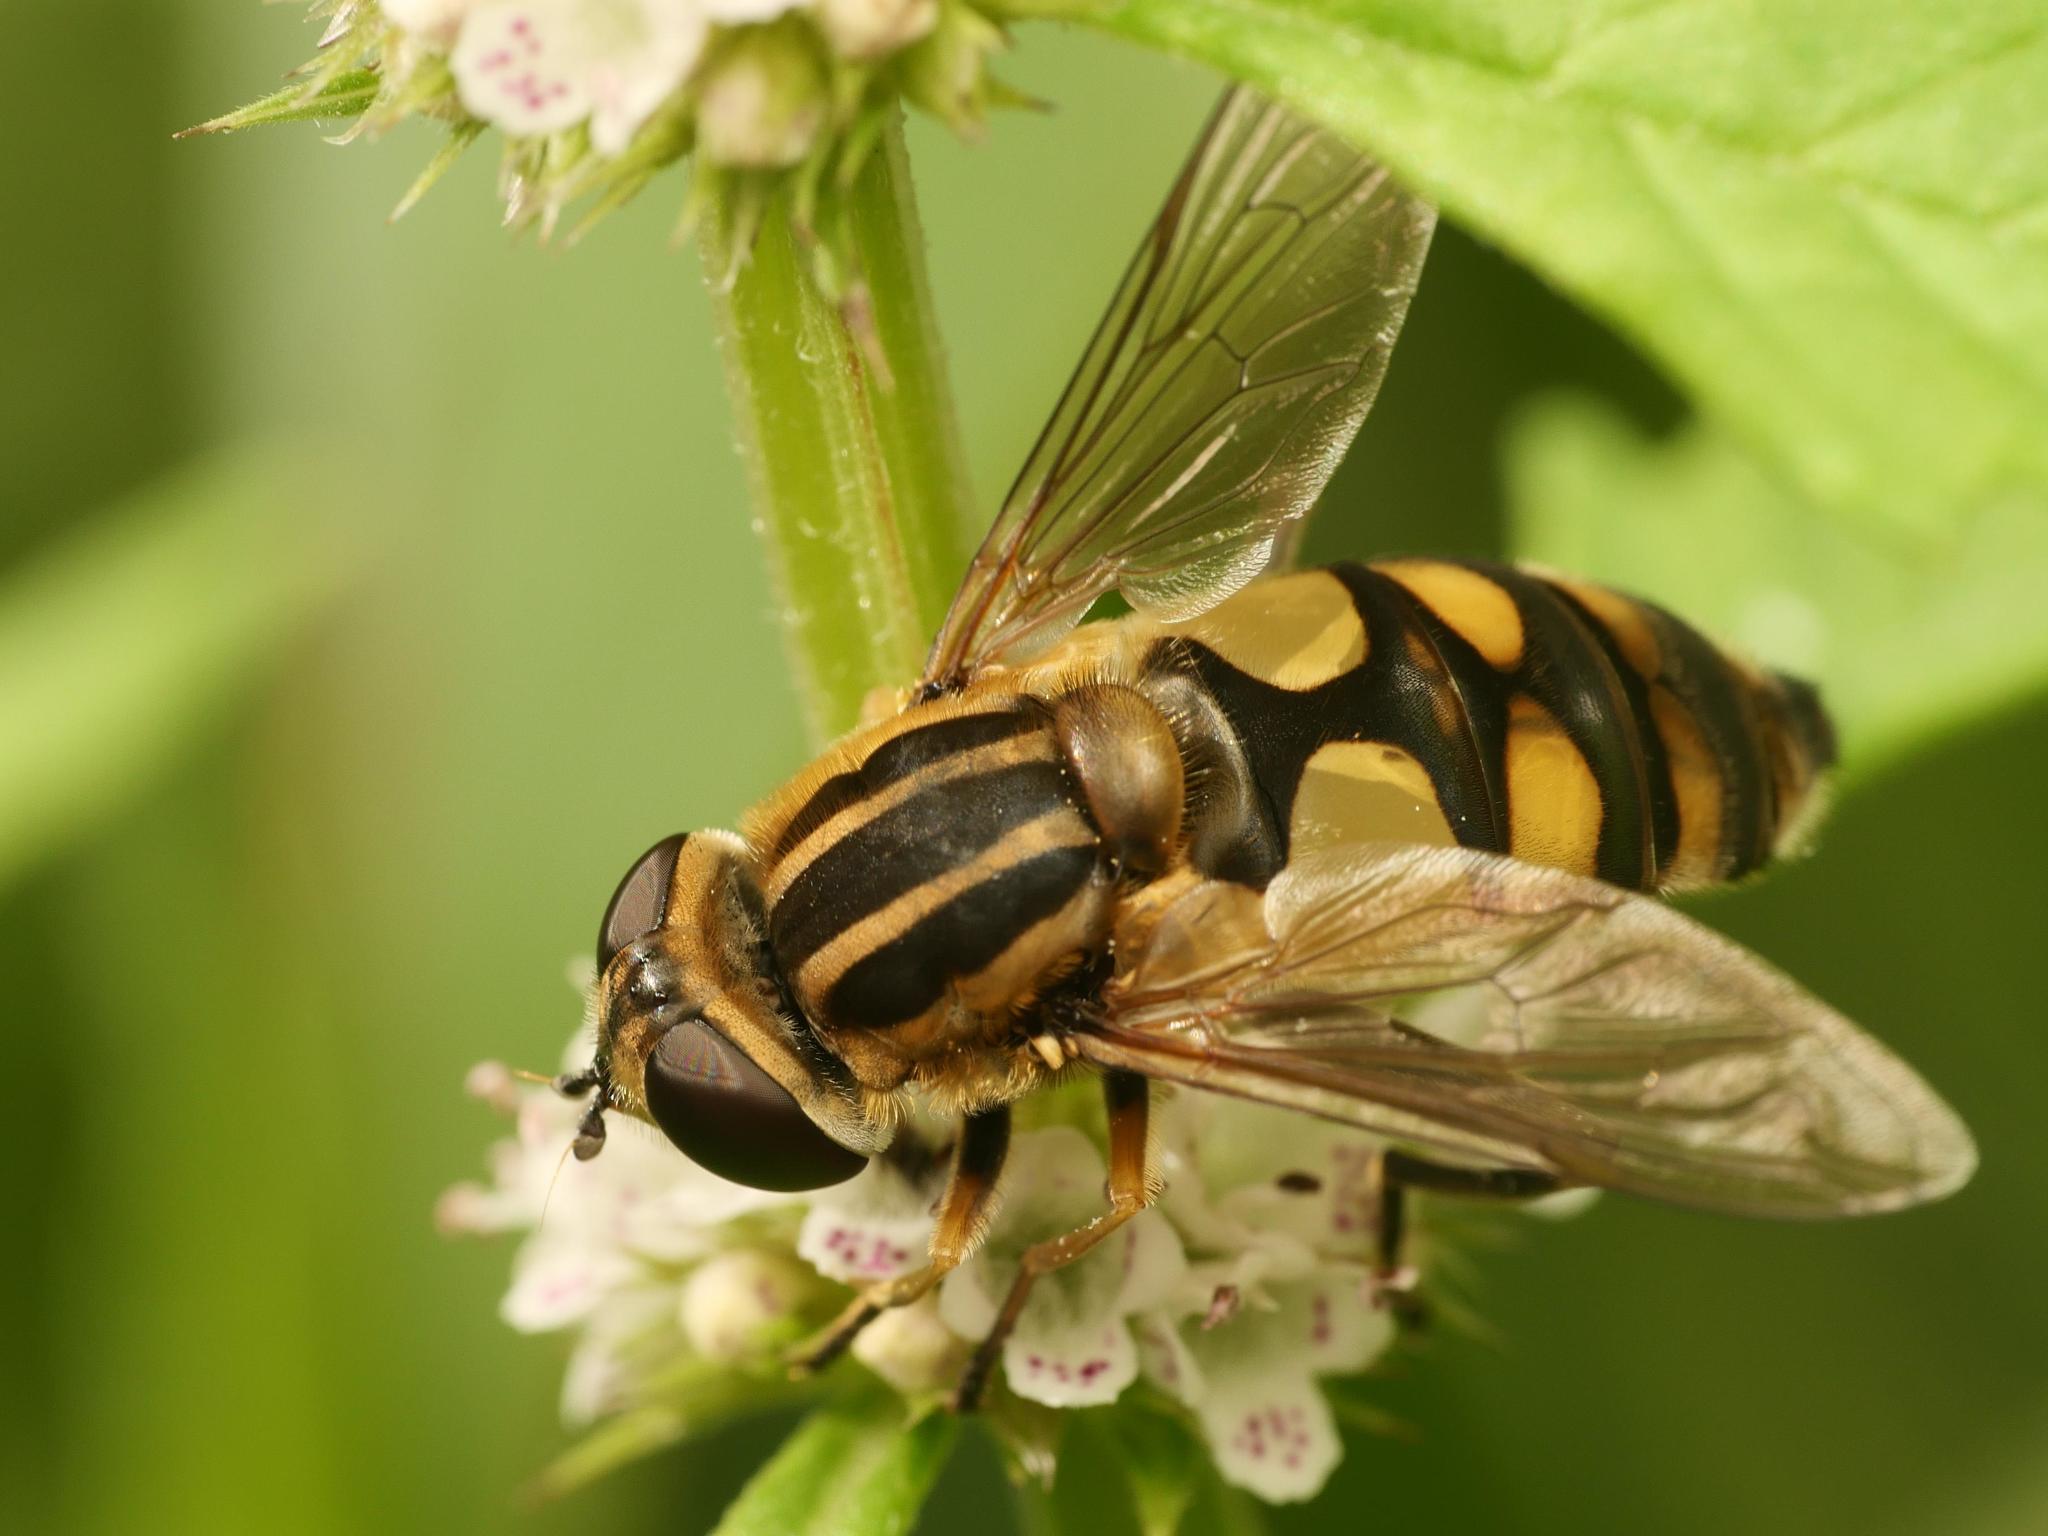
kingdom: Animalia
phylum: Arthropoda
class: Insecta
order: Diptera
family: Syrphidae
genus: Helophilus
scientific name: Helophilus hybridus
